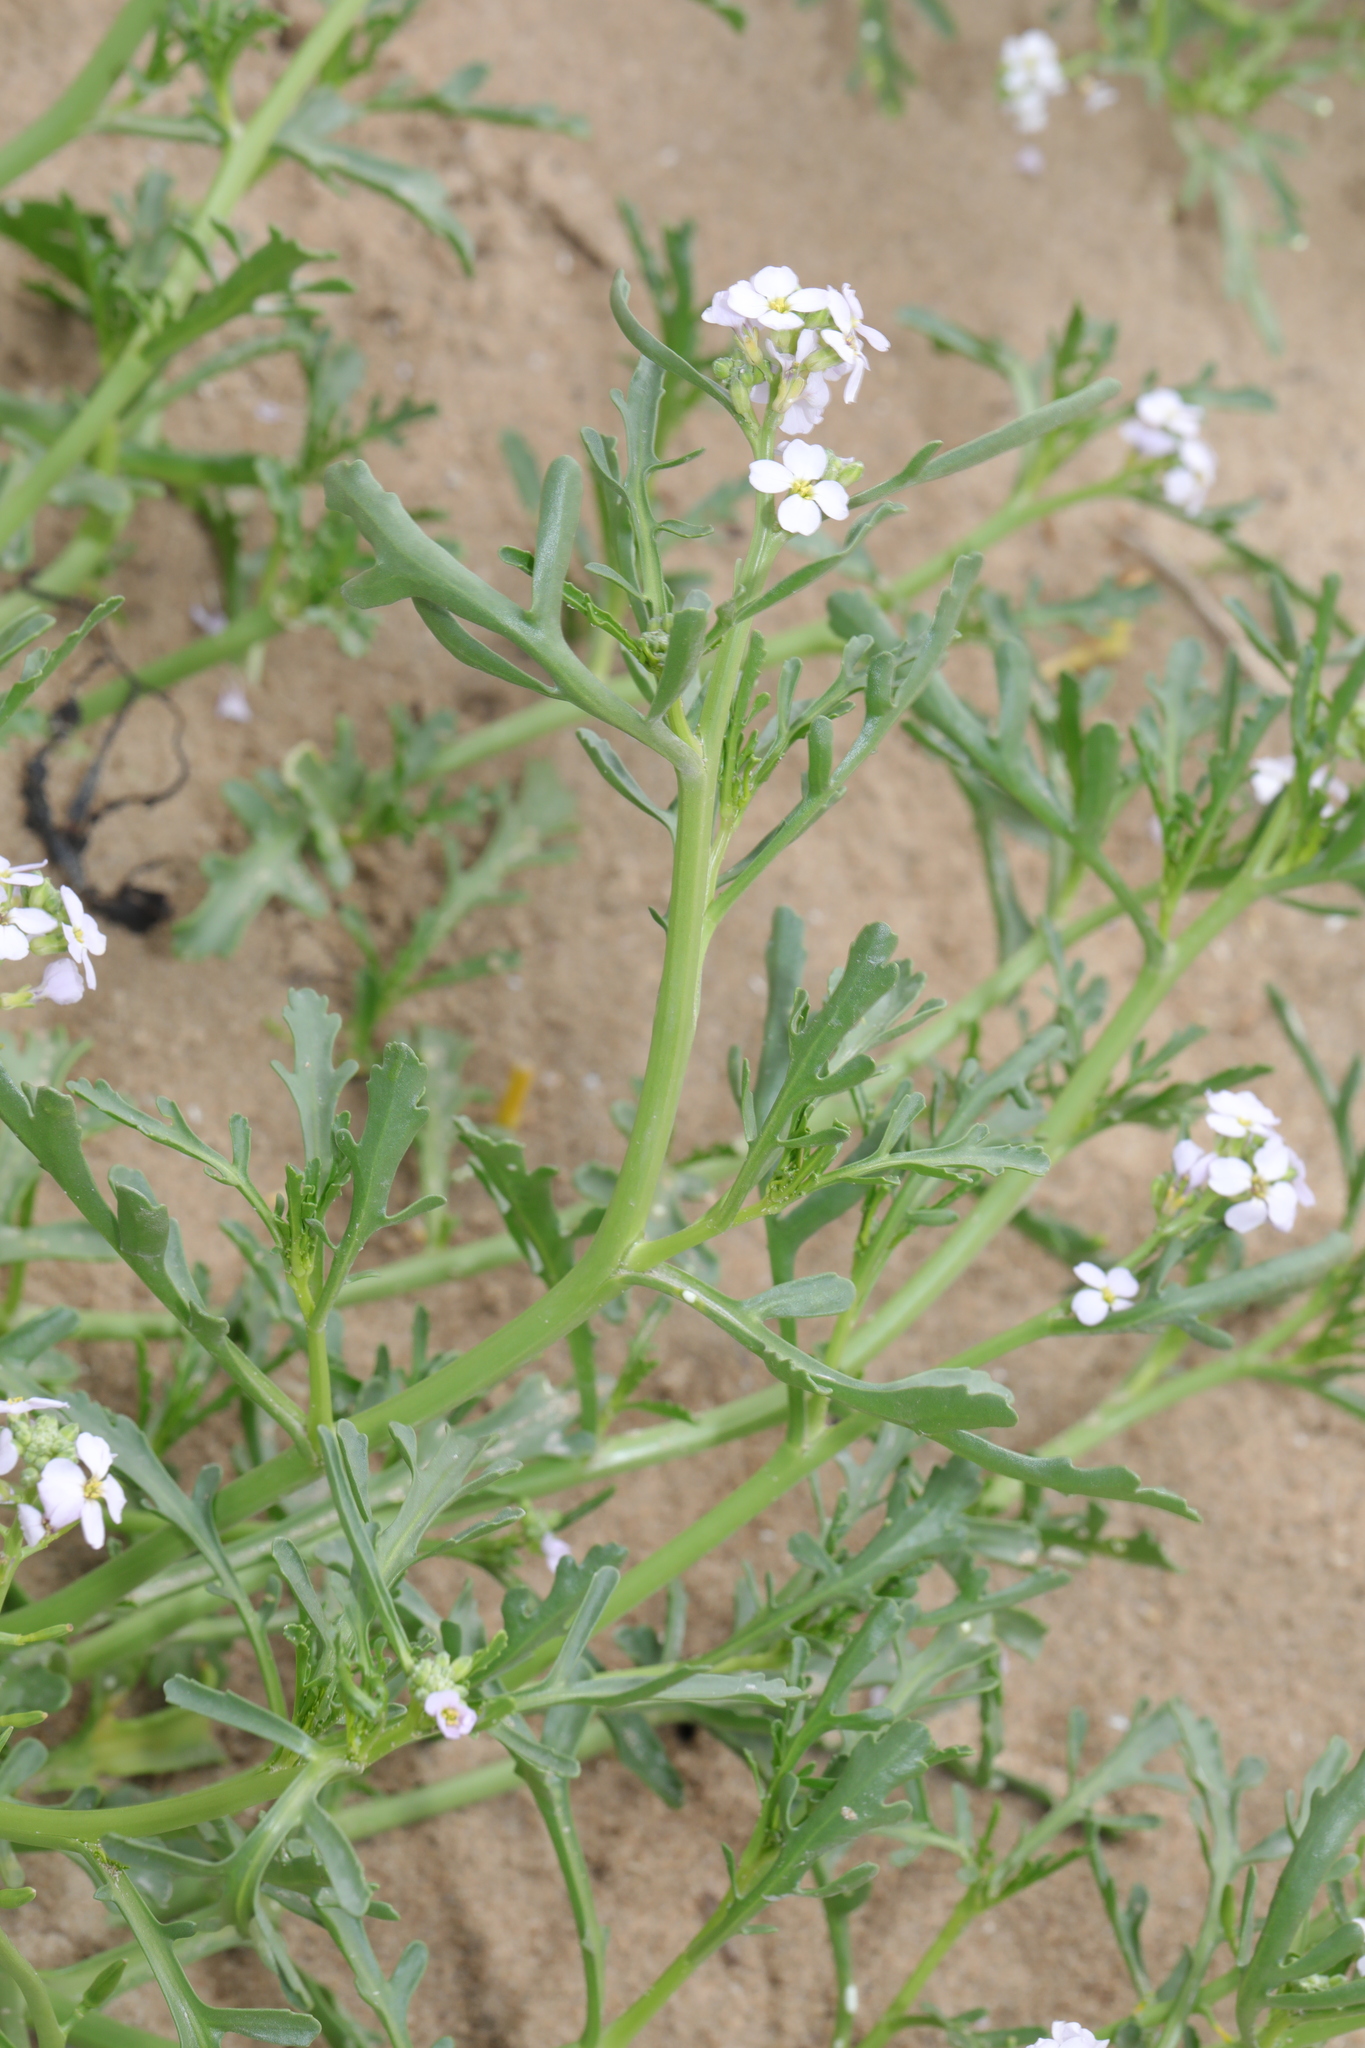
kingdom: Plantae
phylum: Tracheophyta
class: Magnoliopsida
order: Brassicales
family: Brassicaceae
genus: Cakile
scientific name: Cakile maritima
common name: Sea rocket
